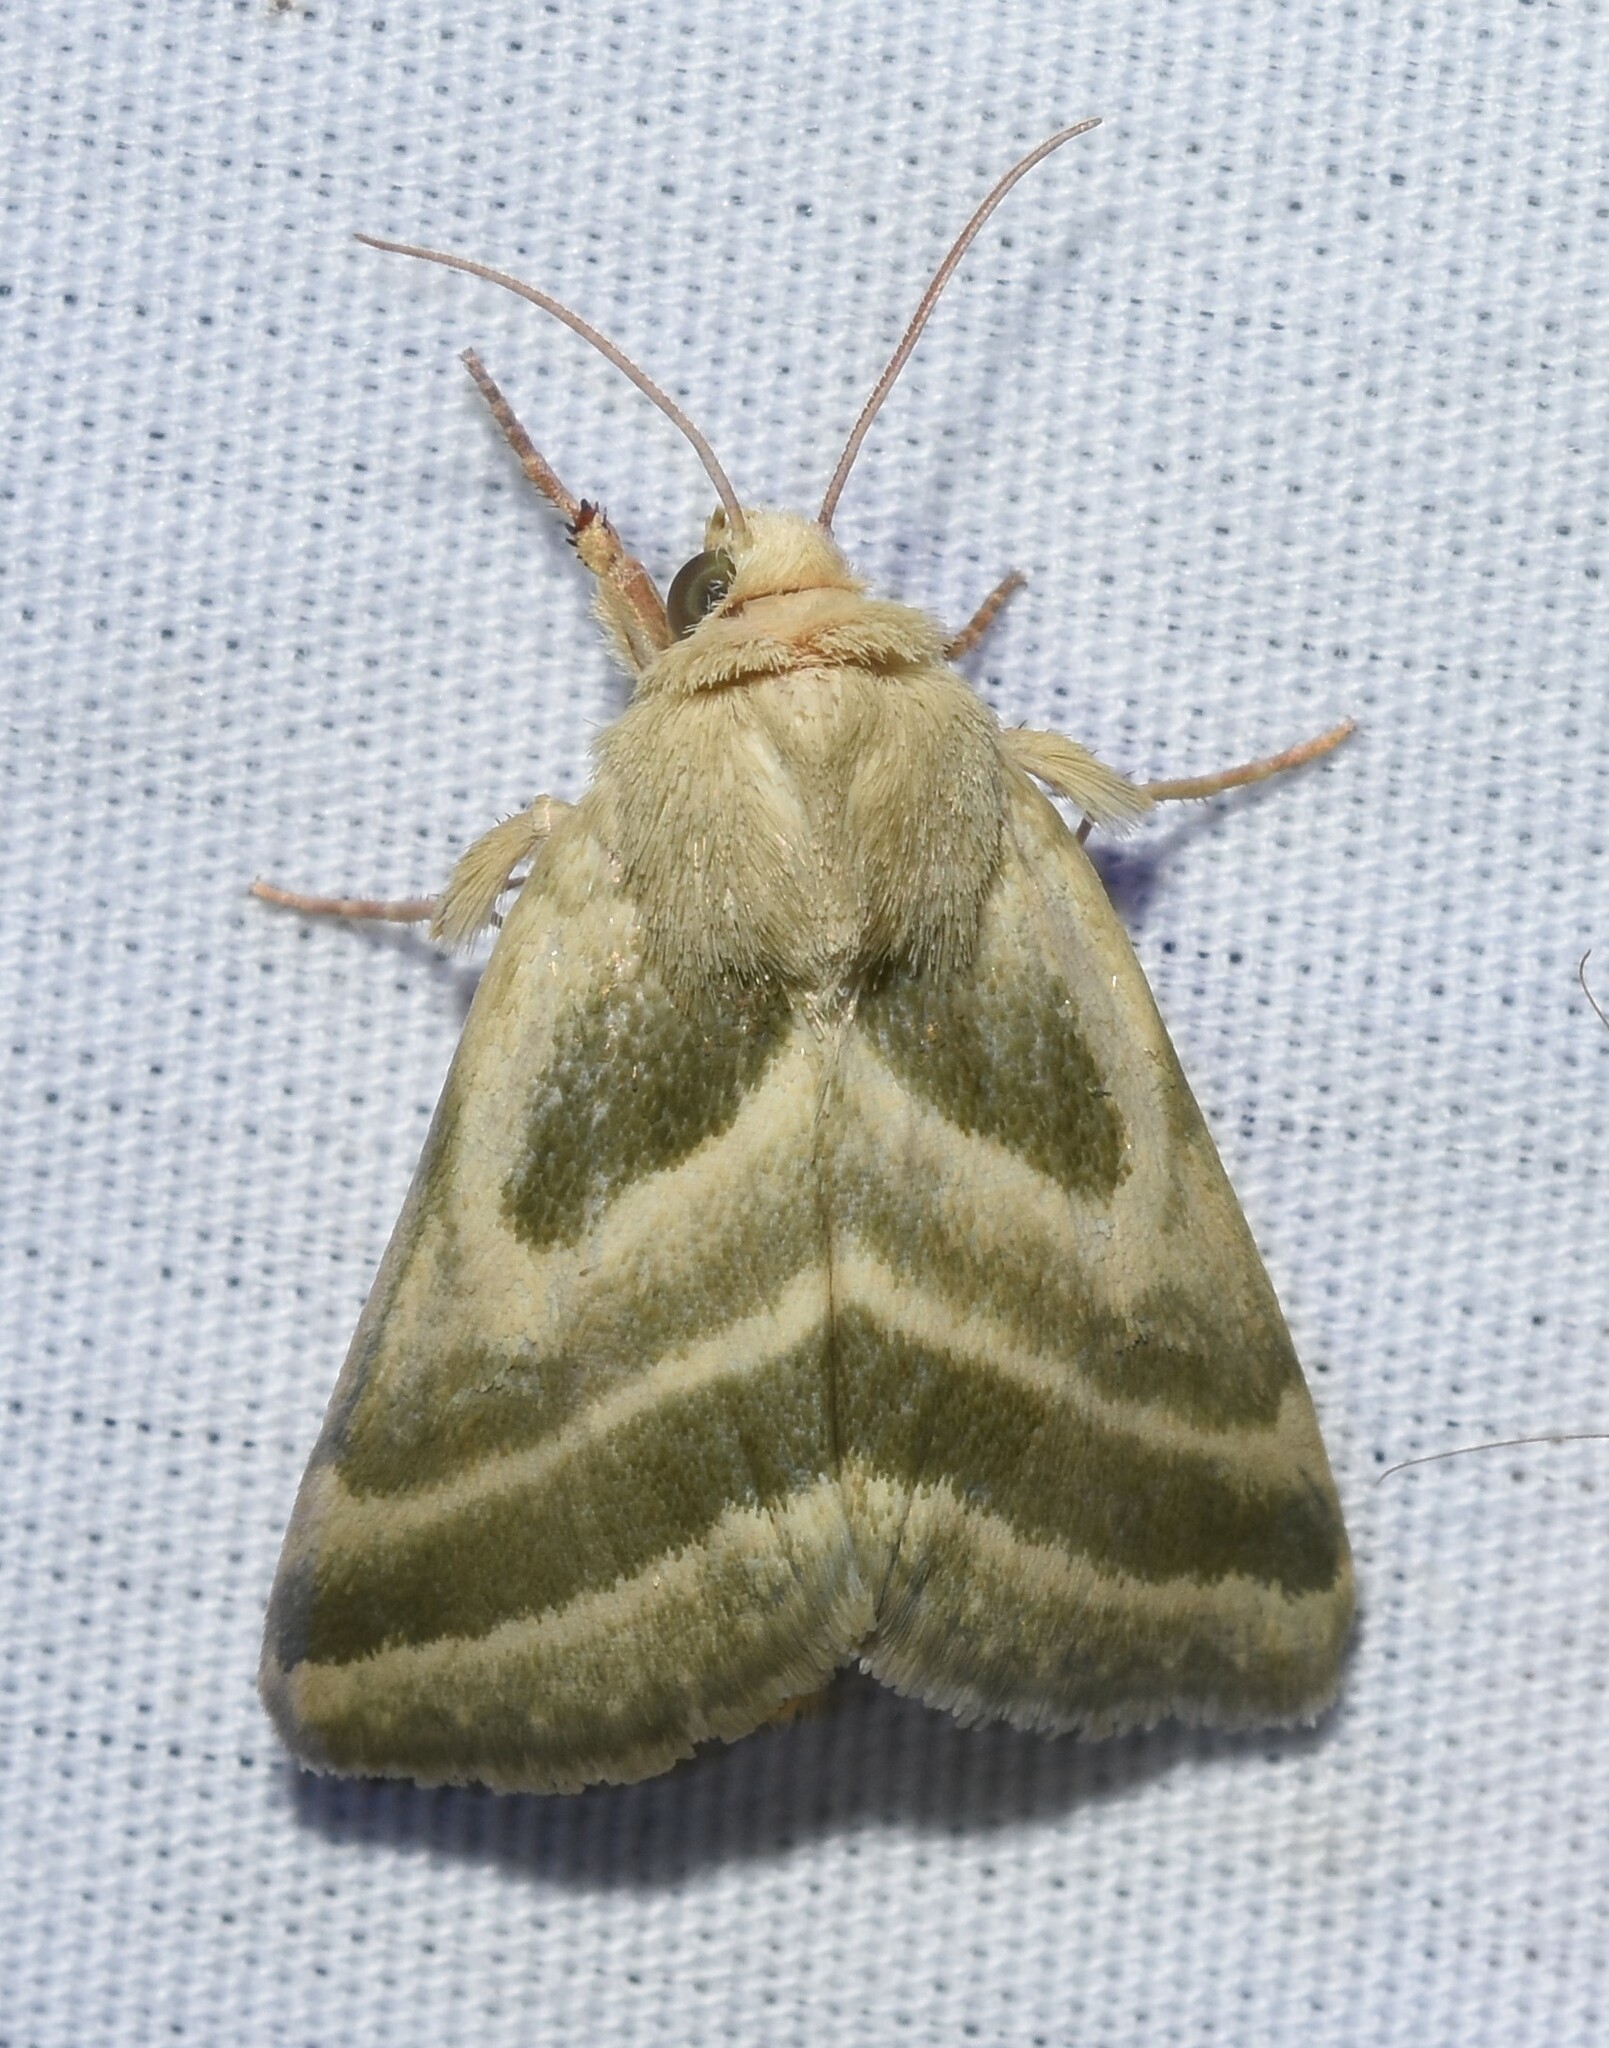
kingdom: Animalia
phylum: Arthropoda
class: Insecta
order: Lepidoptera
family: Noctuidae
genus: Schinia
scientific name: Schinia trifascia
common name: Three-lined flower moth
